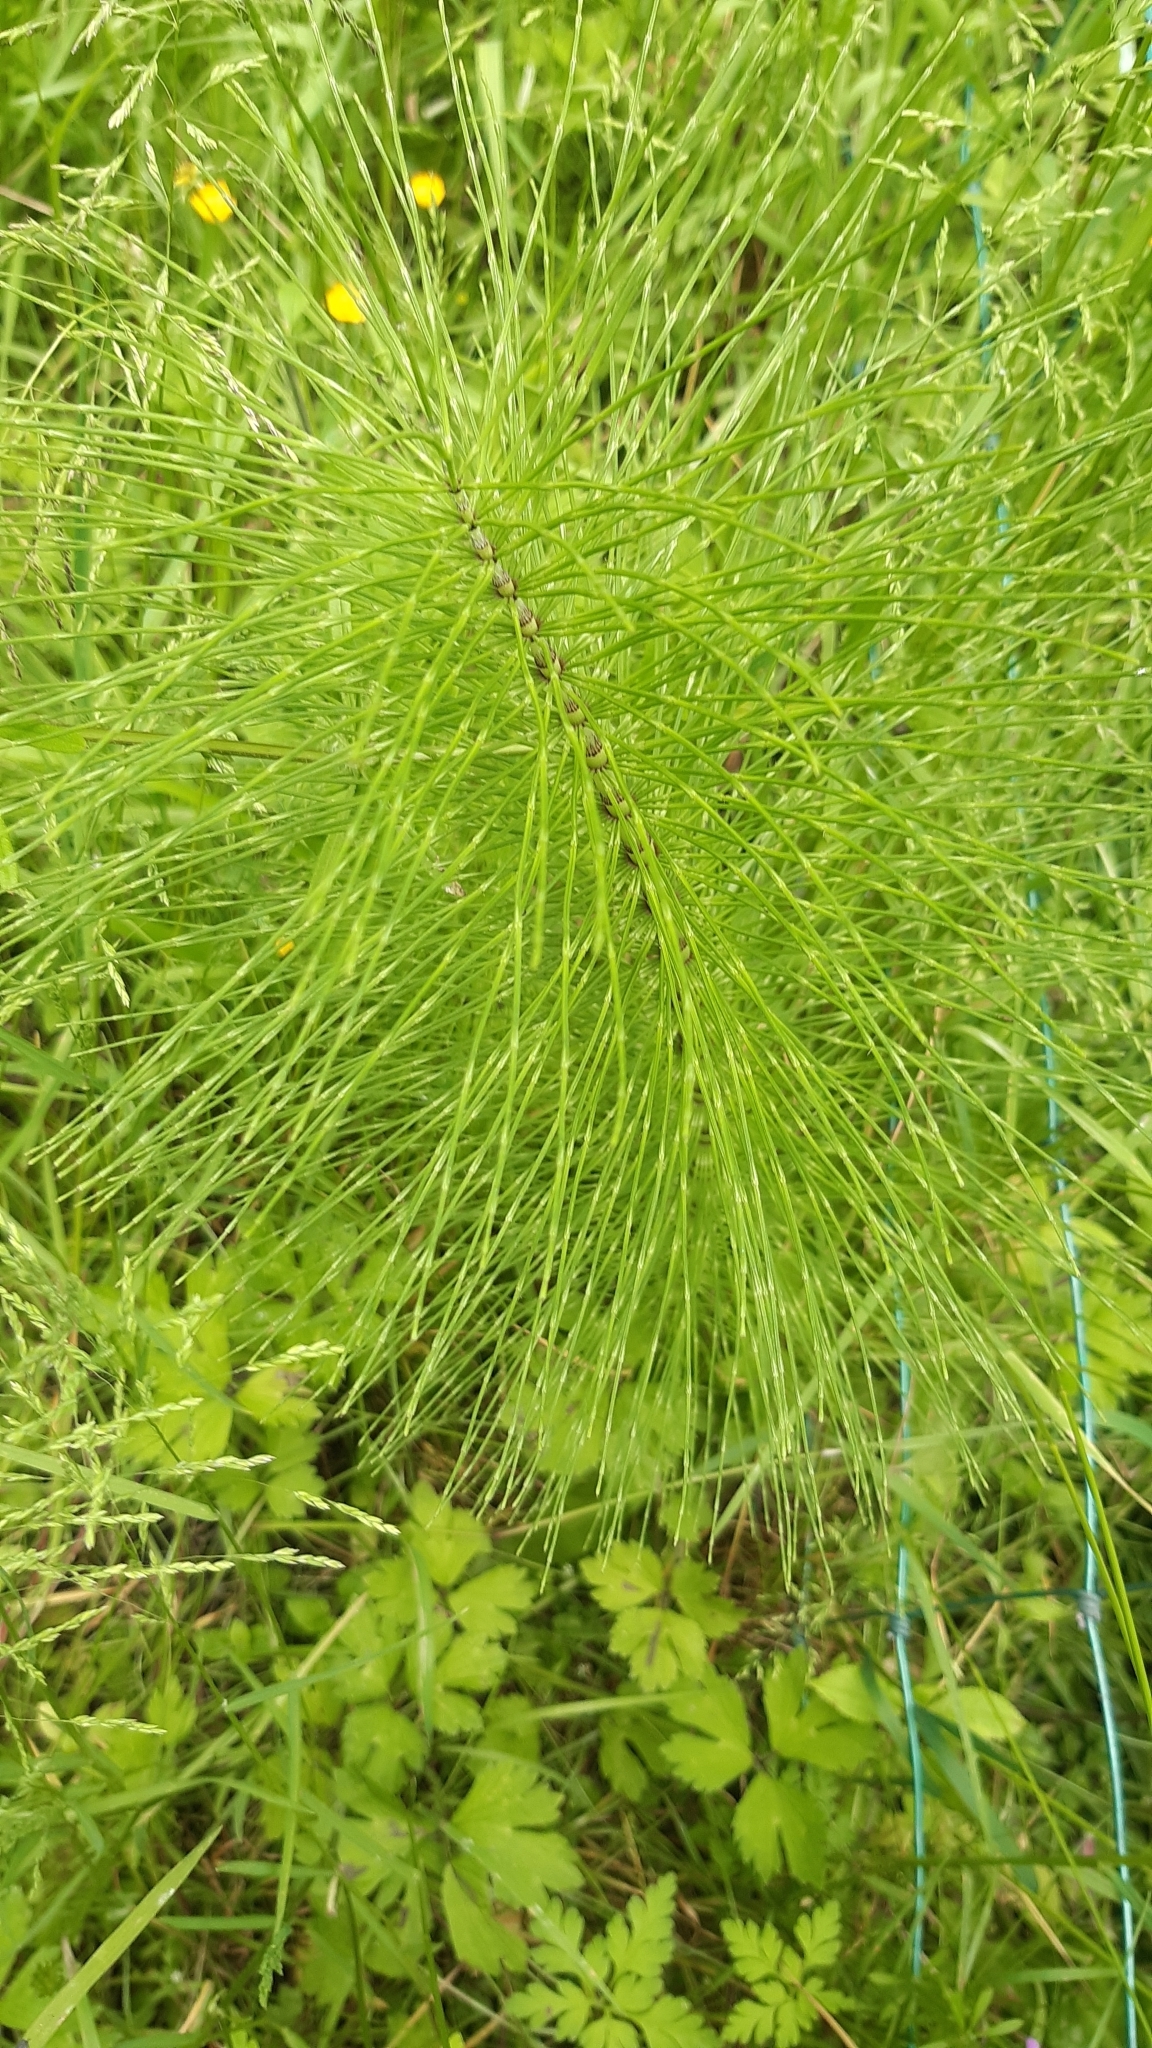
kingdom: Plantae
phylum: Tracheophyta
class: Polypodiopsida
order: Equisetales
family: Equisetaceae
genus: Equisetum
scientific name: Equisetum telmateia
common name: Great horsetail
